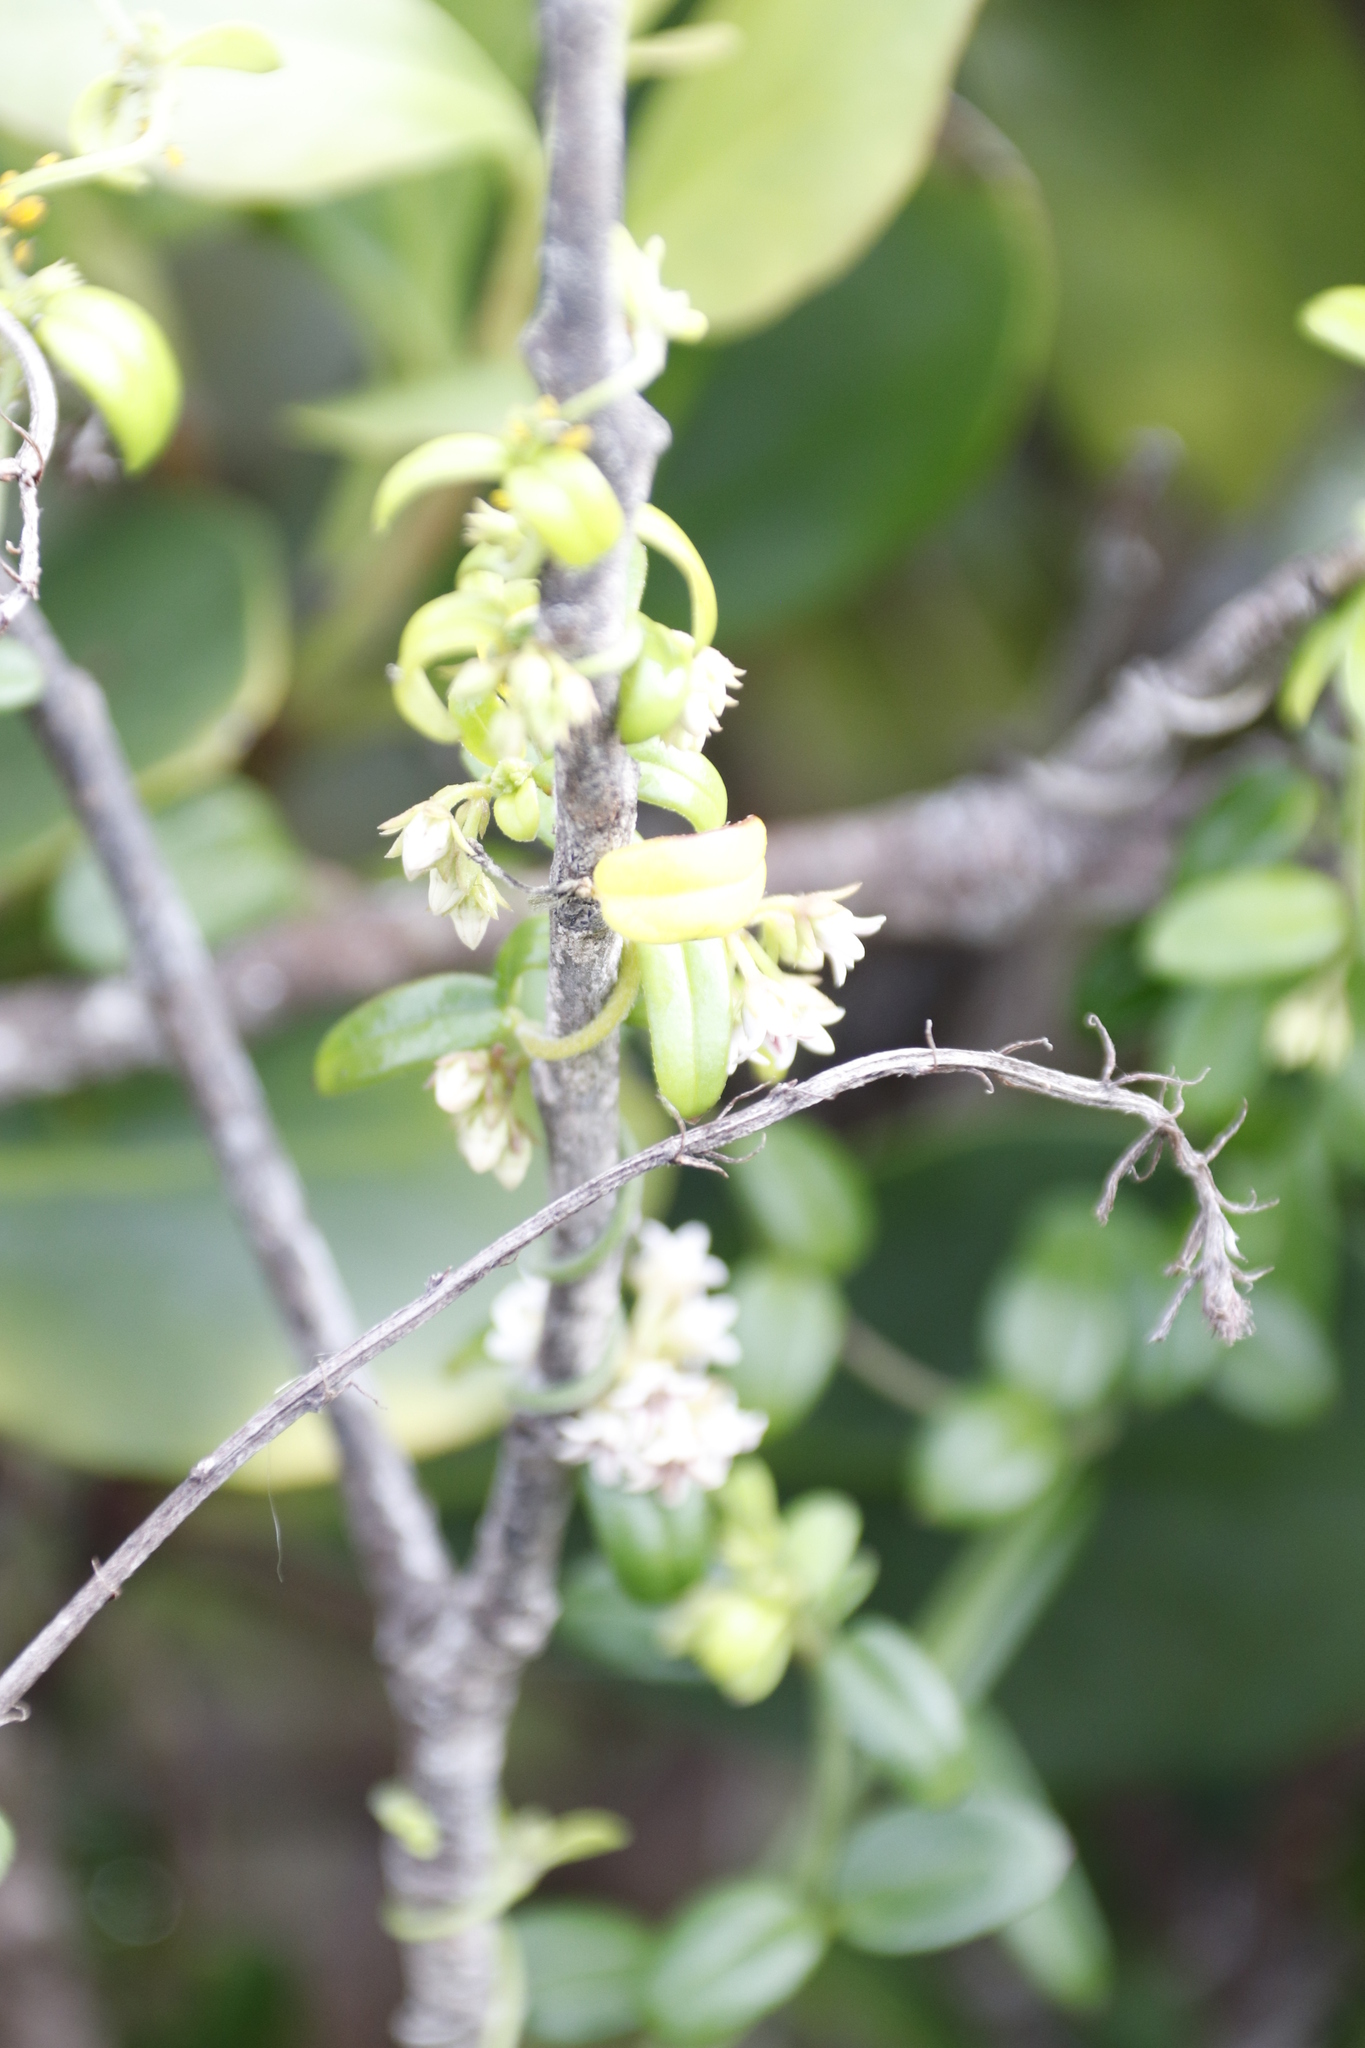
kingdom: Plantae
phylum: Tracheophyta
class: Magnoliopsida
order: Gentianales
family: Apocynaceae
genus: Astephanus
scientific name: Astephanus triflorus
